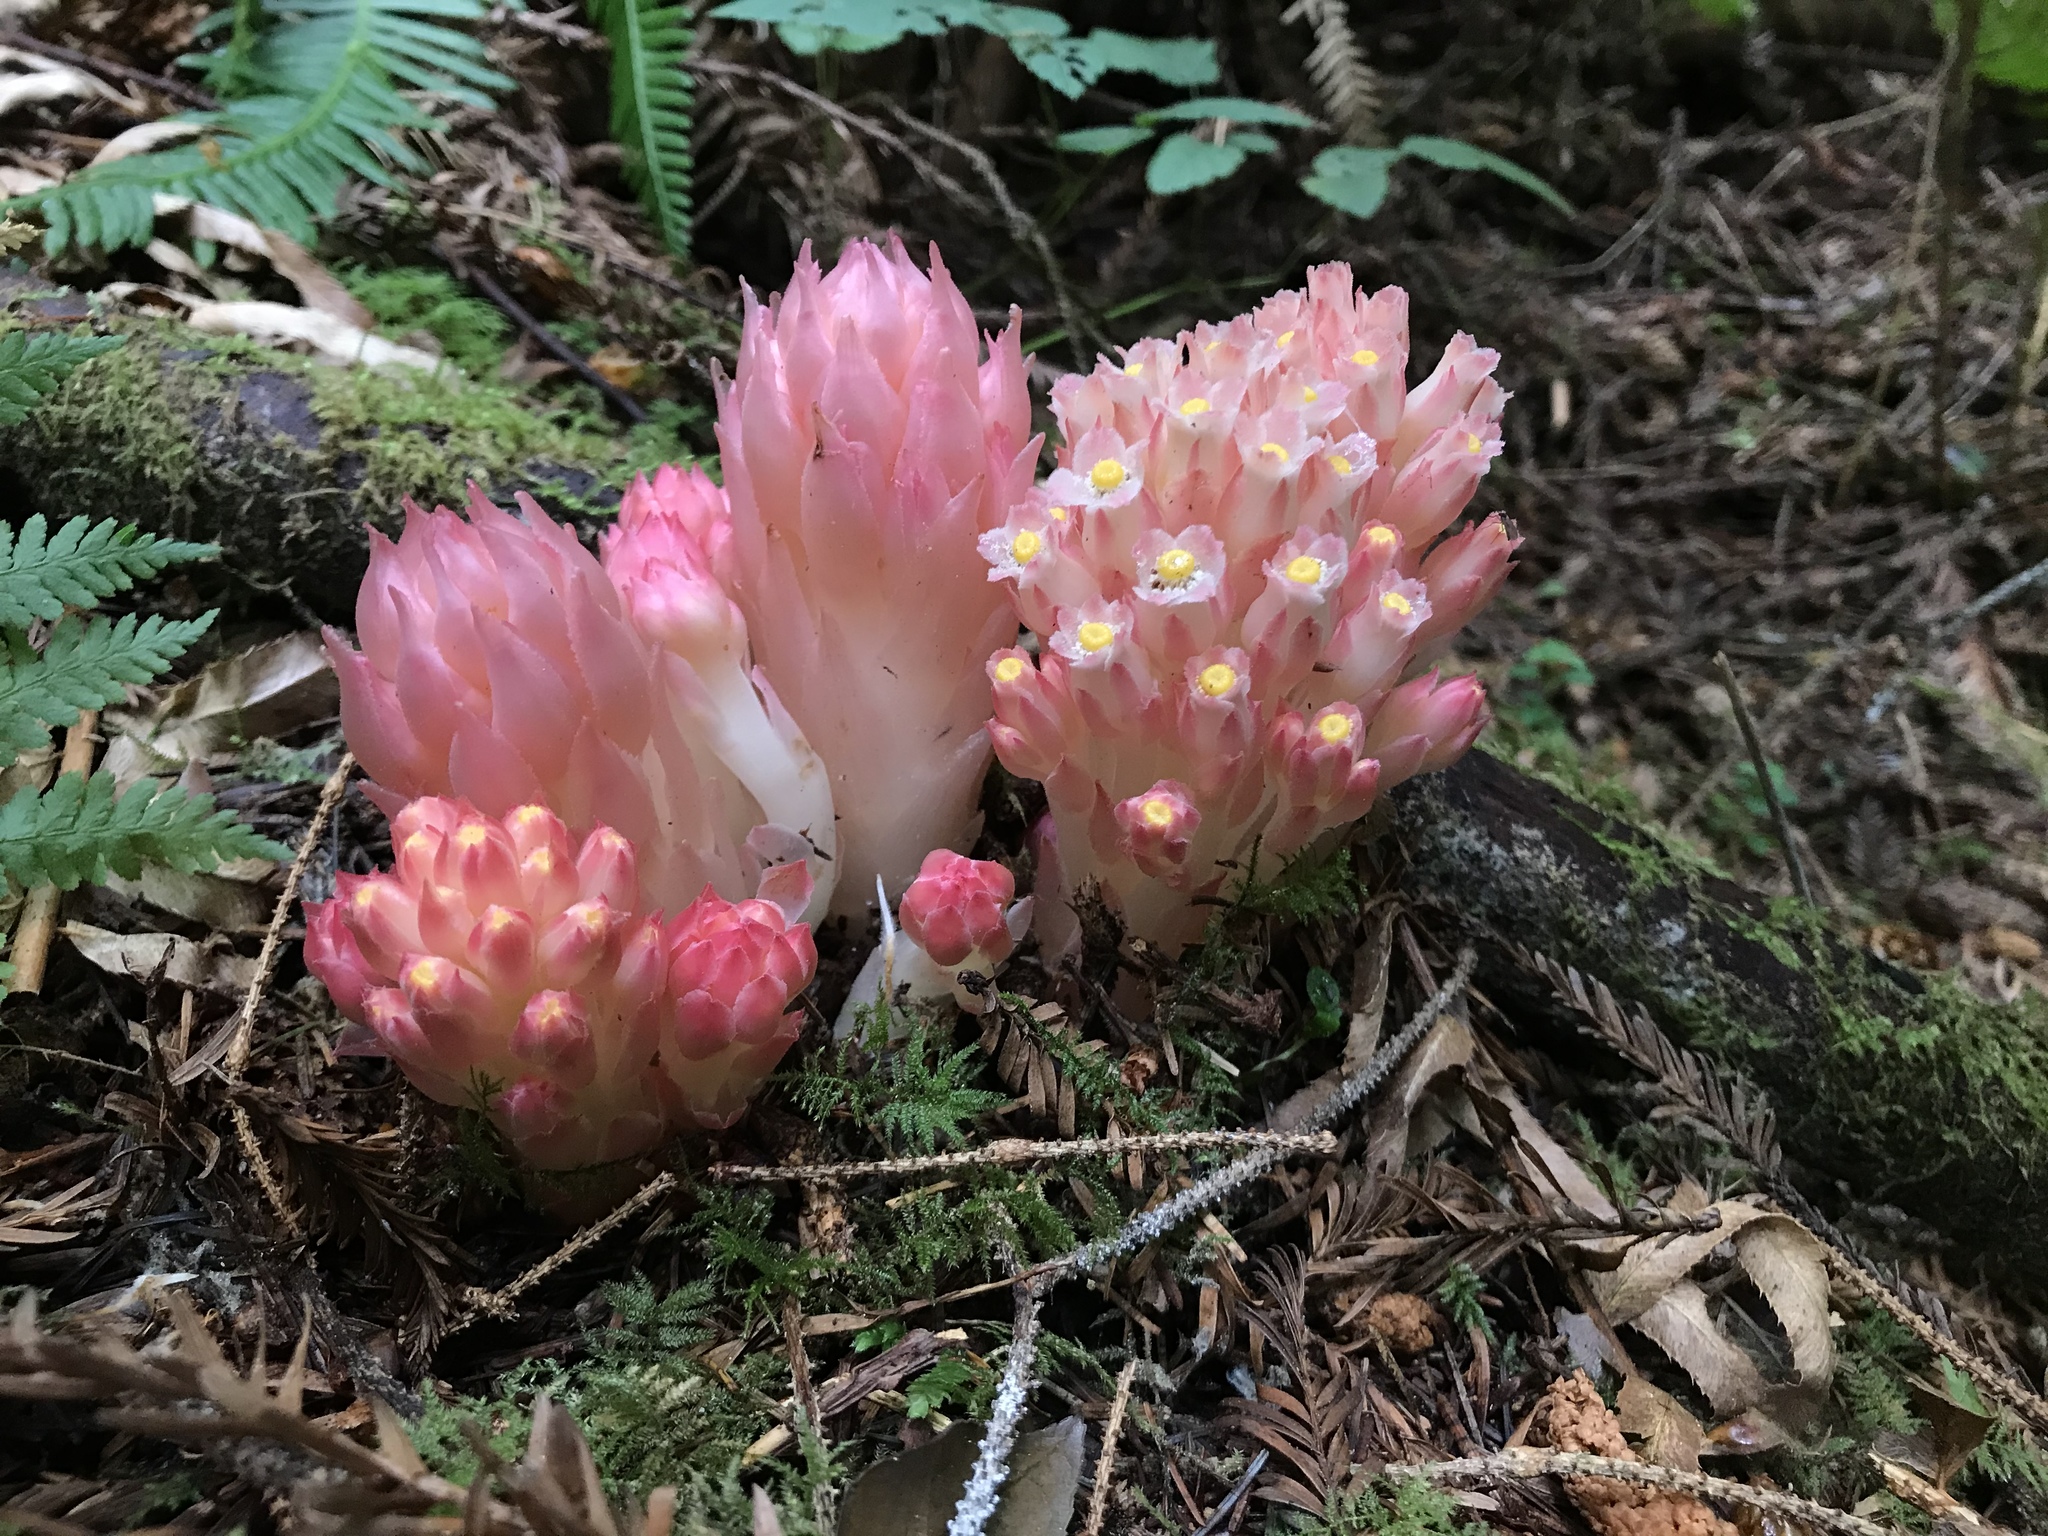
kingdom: Plantae
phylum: Tracheophyta
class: Magnoliopsida
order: Ericales
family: Ericaceae
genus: Hemitomes
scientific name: Hemitomes congestum
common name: Cone plant
